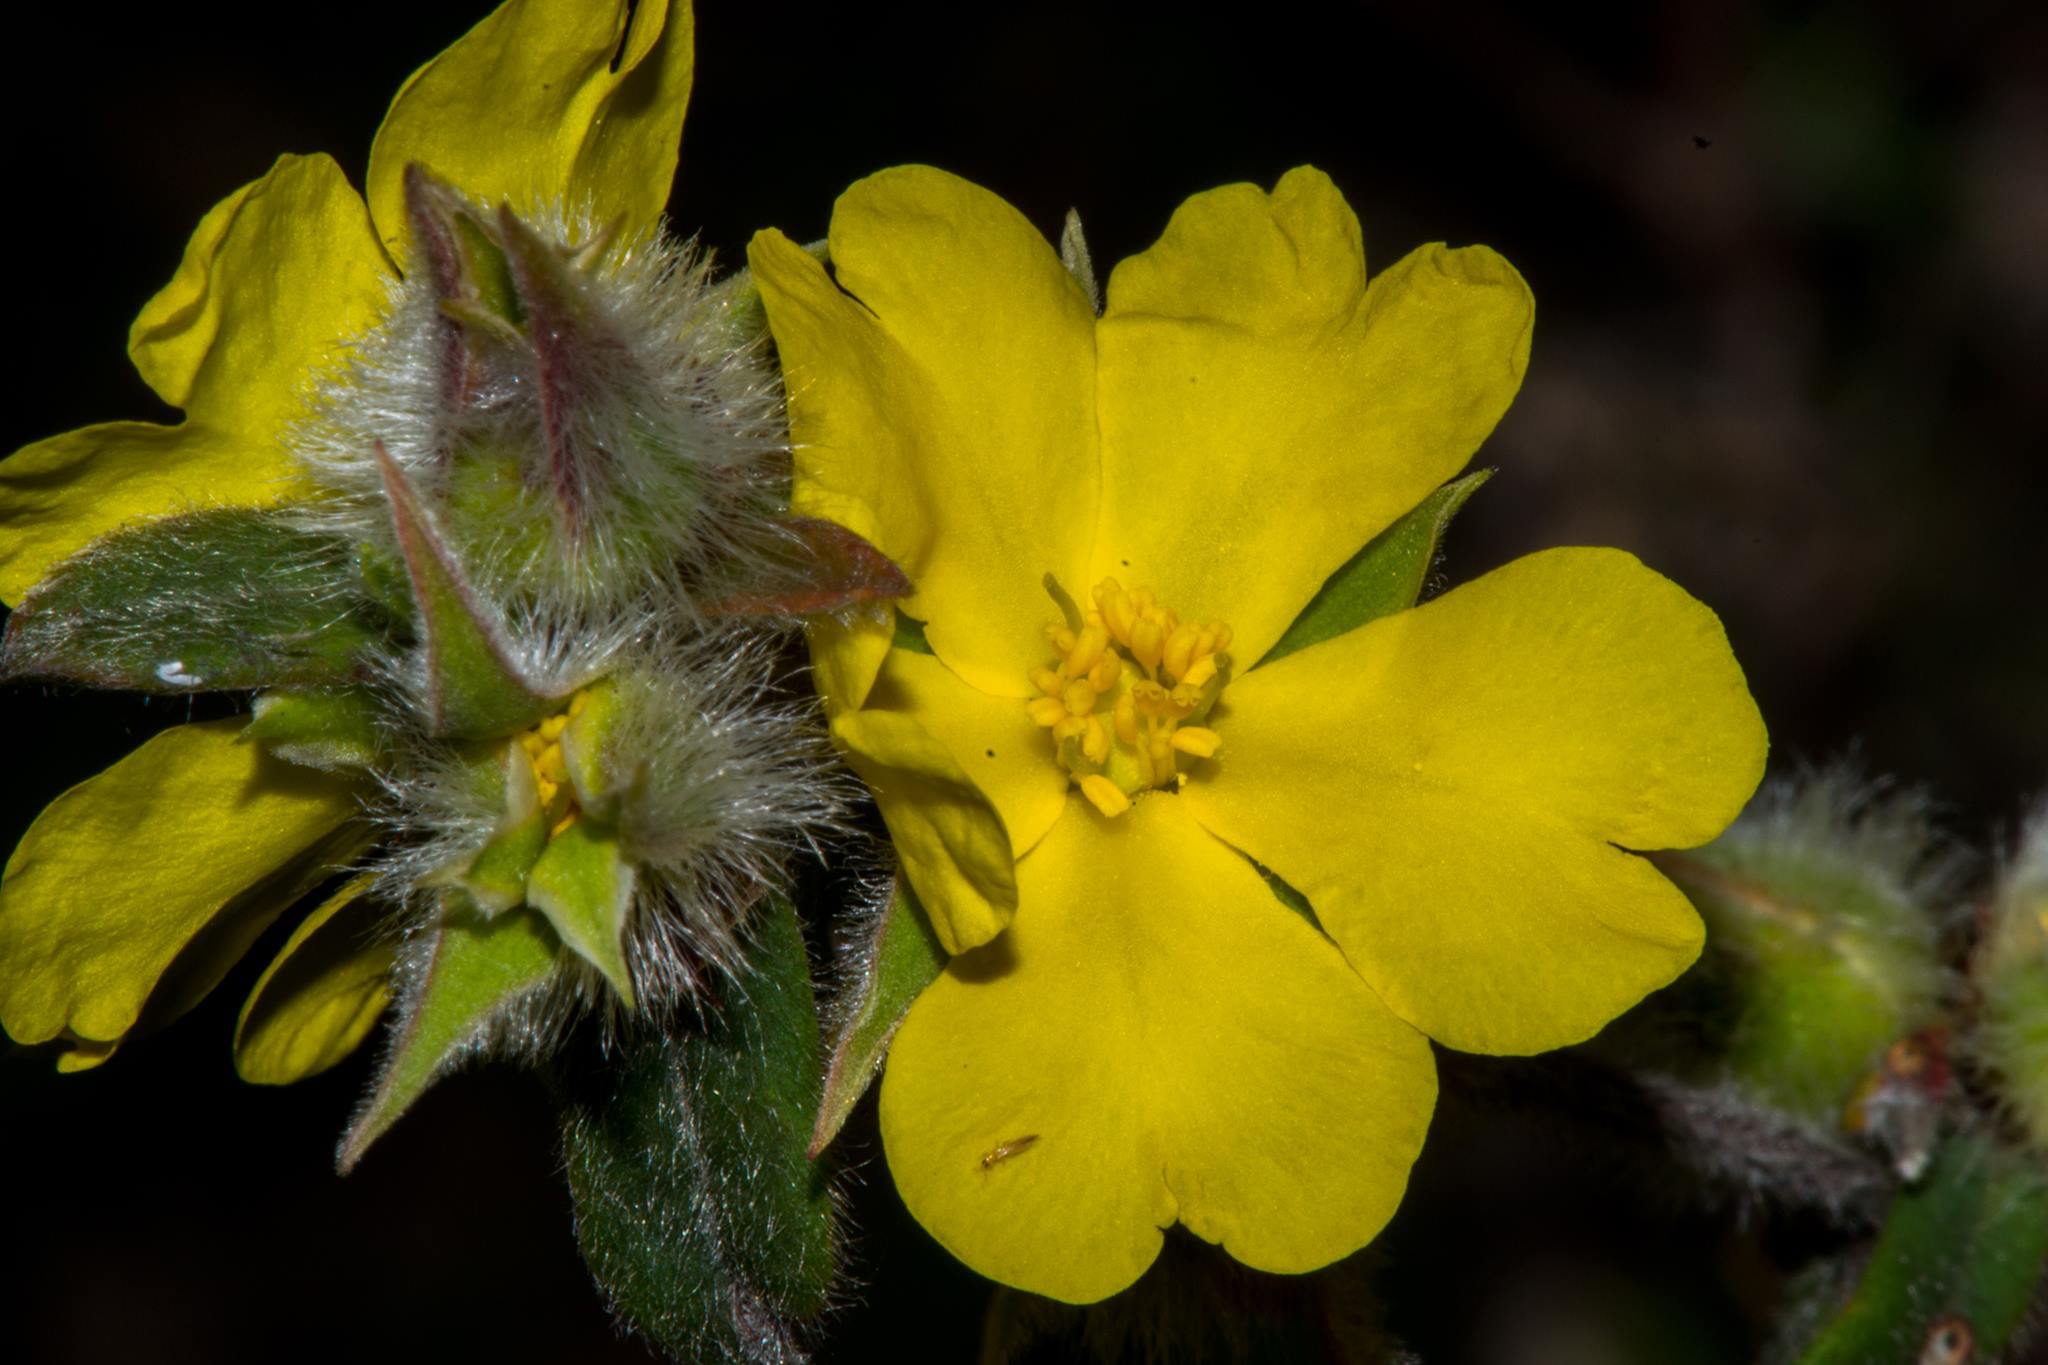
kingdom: Plantae
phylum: Tracheophyta
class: Magnoliopsida
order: Dilleniales
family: Dilleniaceae
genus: Hibbertia
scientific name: Hibbertia commutata
